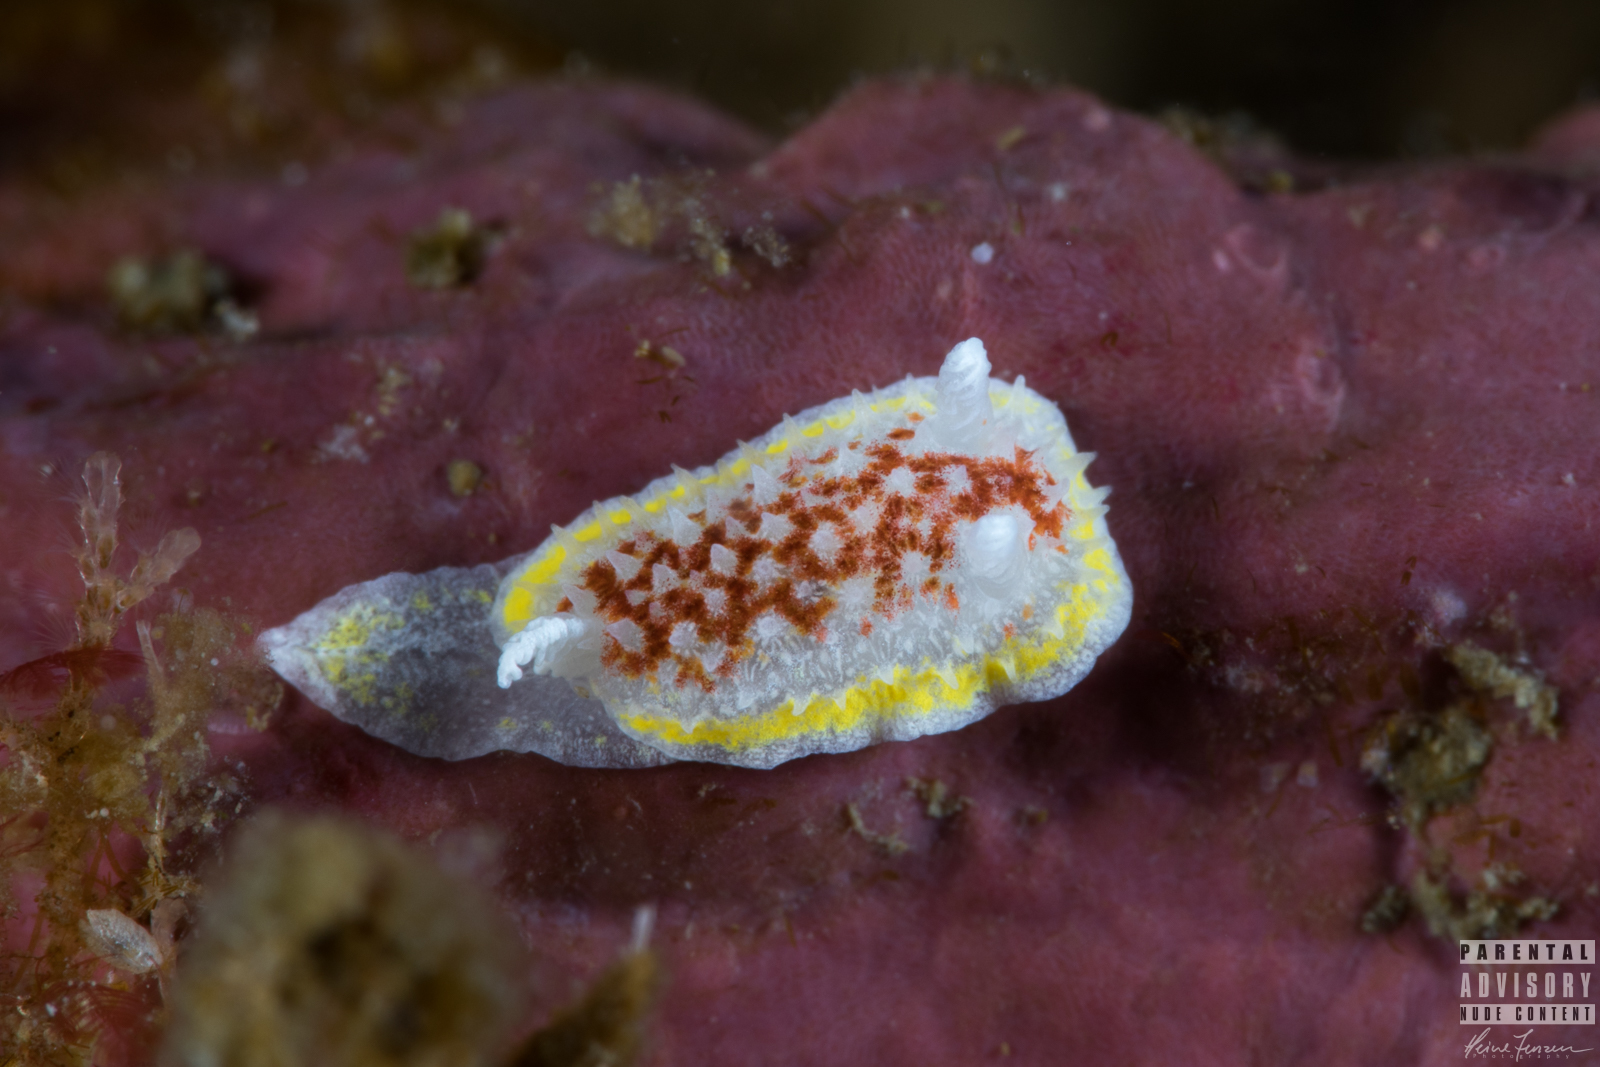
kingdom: Animalia
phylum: Mollusca
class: Gastropoda
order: Nudibranchia
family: Calycidorididae
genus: Diaphorodoris
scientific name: Diaphorodoris luteocincta
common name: Fried egg nudibranch
